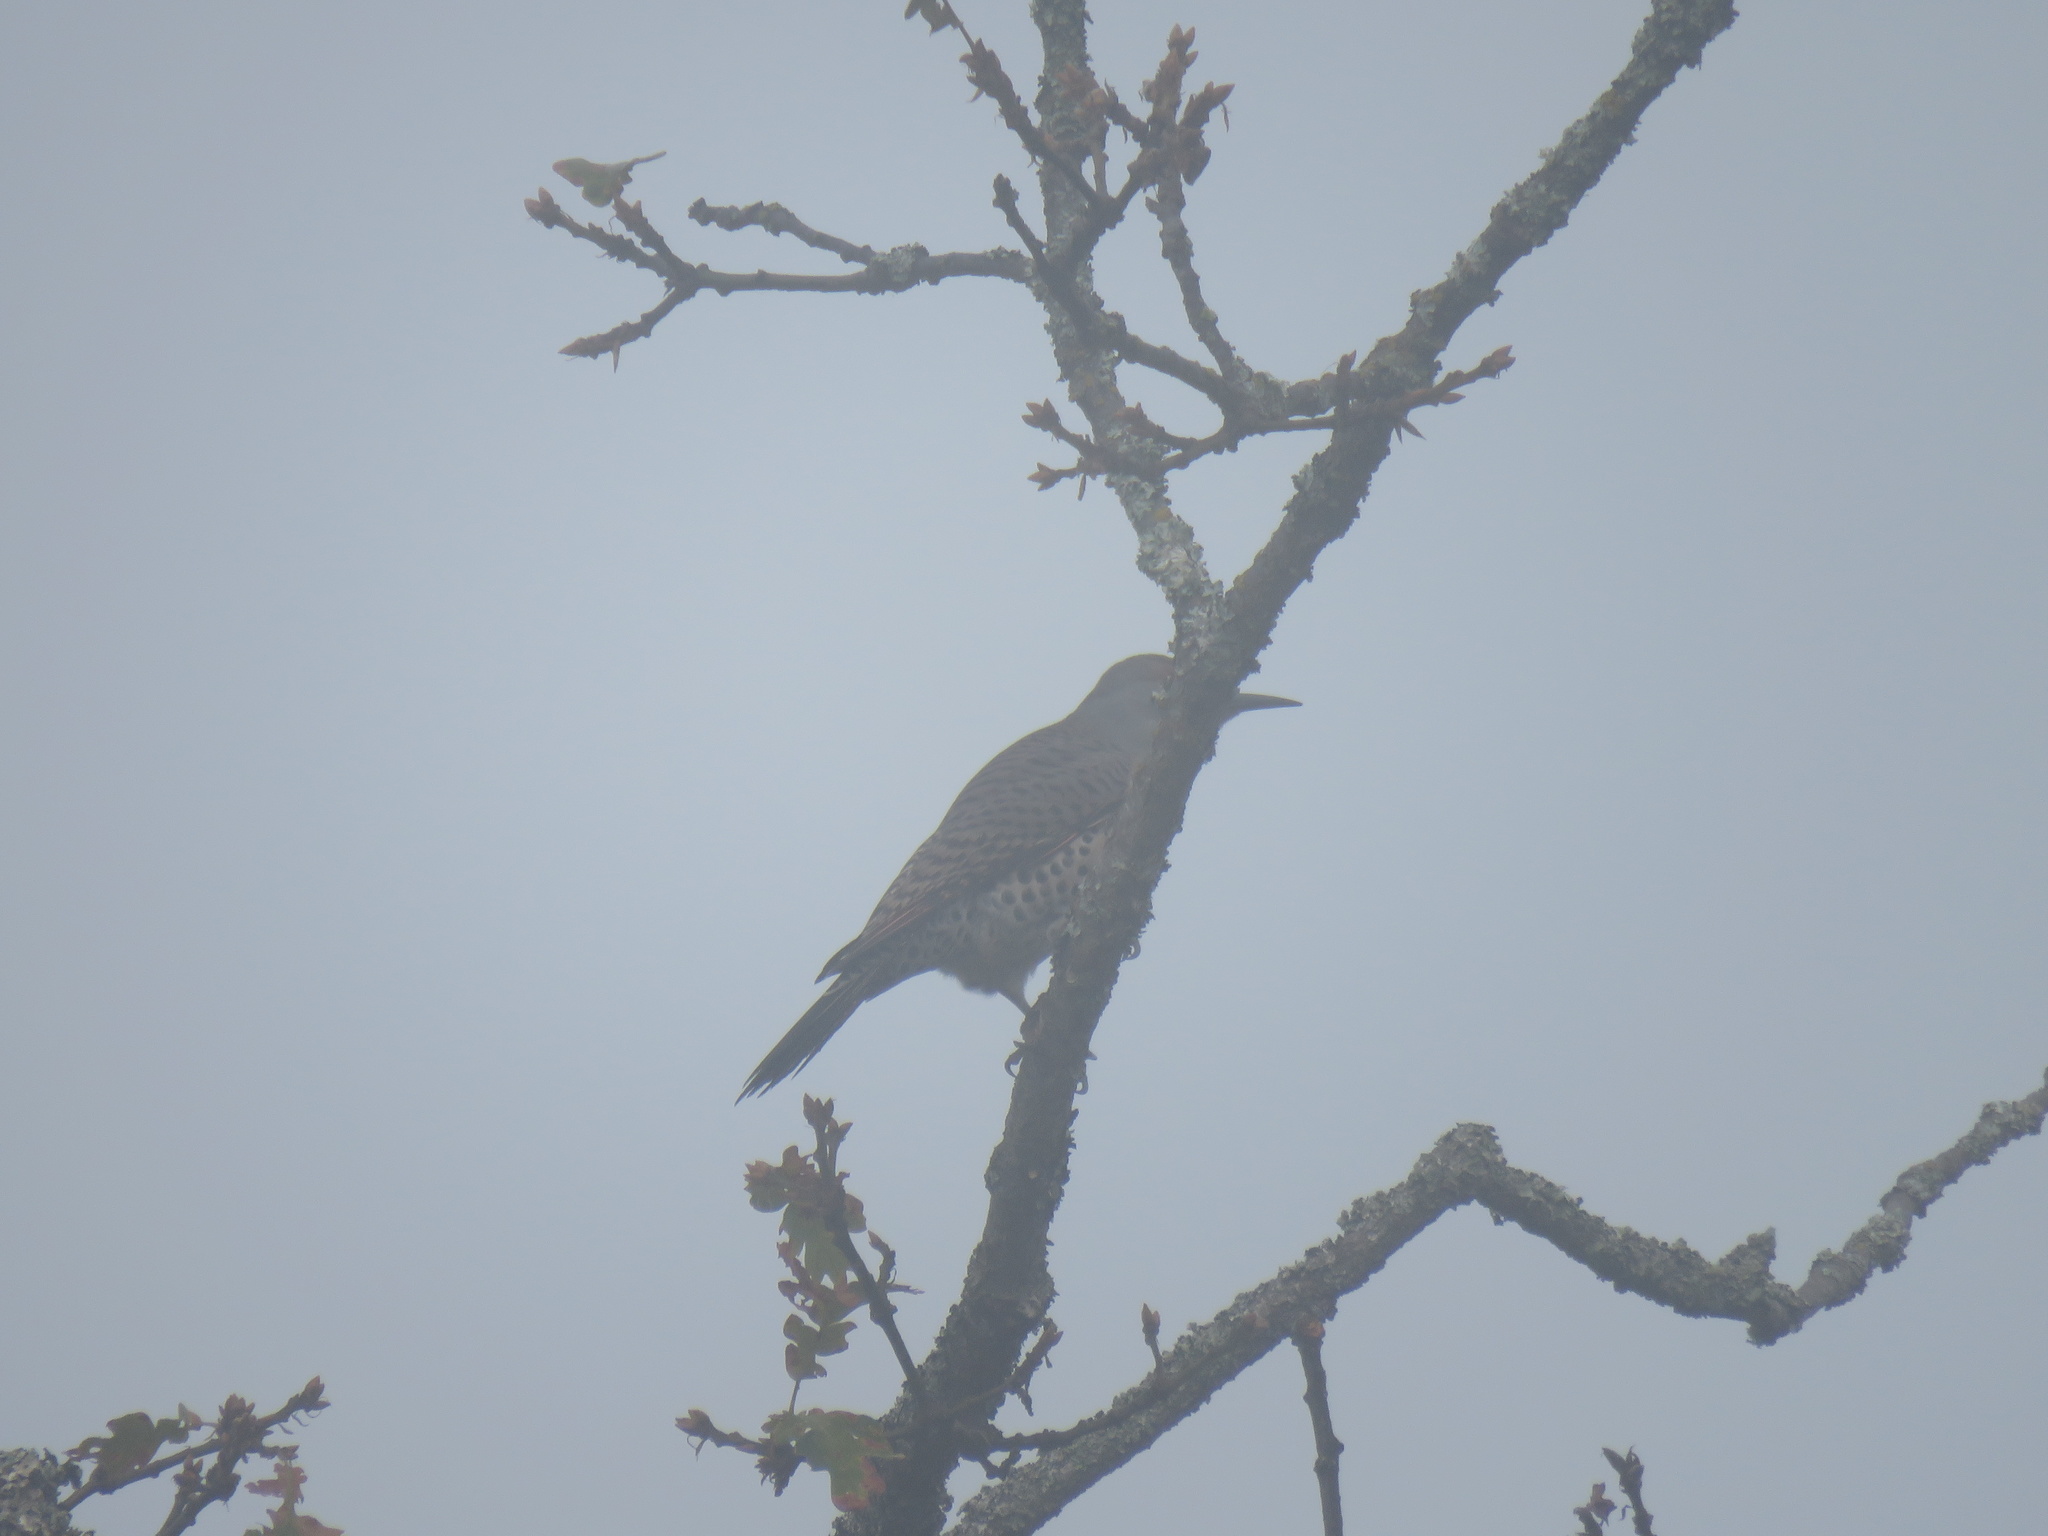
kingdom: Animalia
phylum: Chordata
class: Aves
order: Piciformes
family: Picidae
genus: Colaptes
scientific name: Colaptes auratus
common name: Northern flicker
